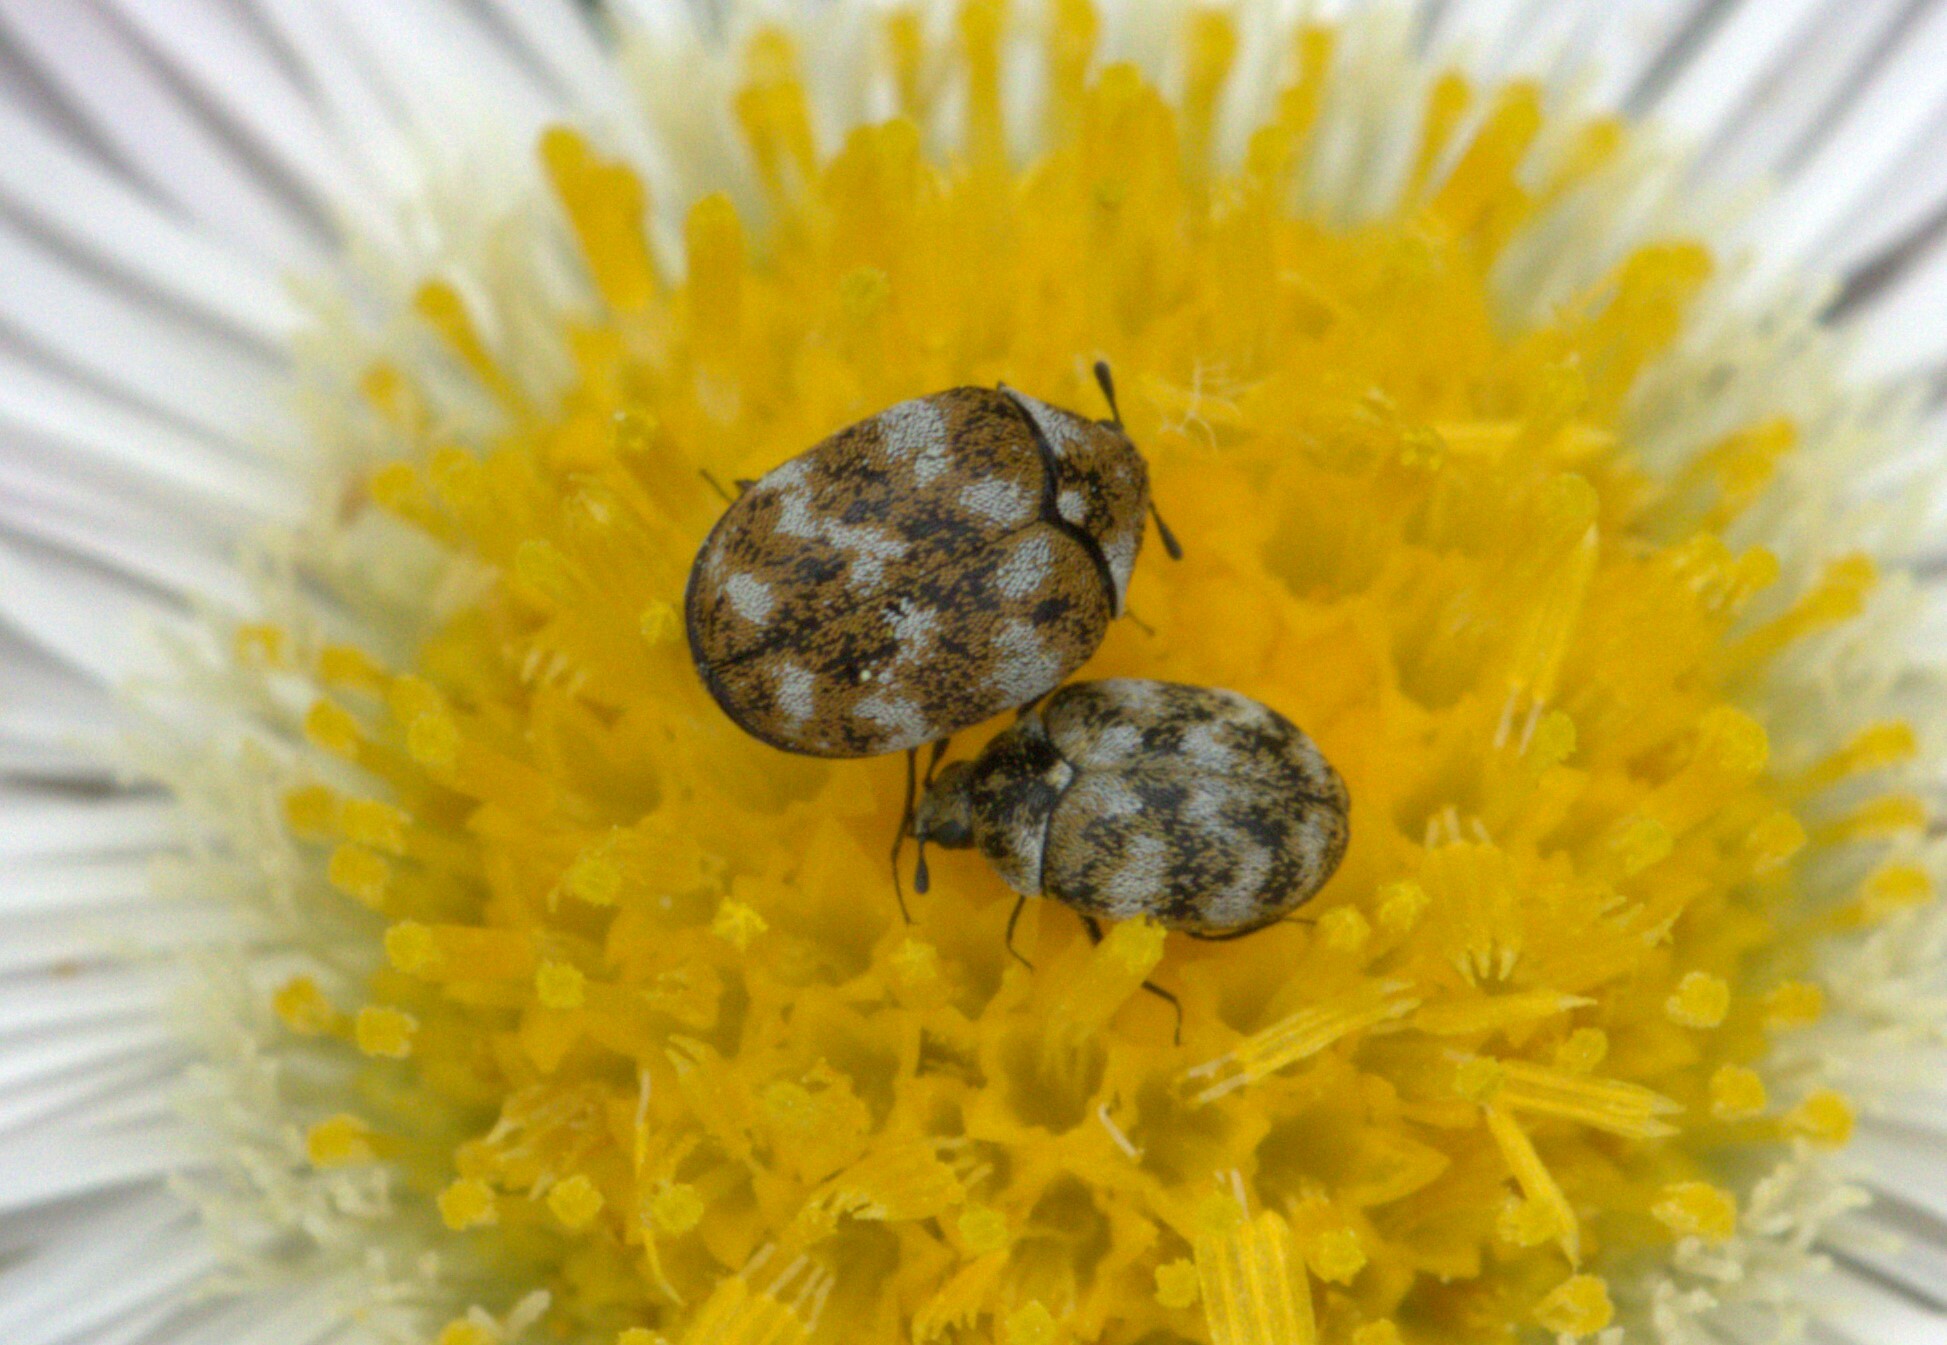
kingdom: Animalia
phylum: Arthropoda
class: Insecta
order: Coleoptera
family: Dermestidae
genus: Anthrenus
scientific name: Anthrenus verbasci
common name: Varied carpet beetle
